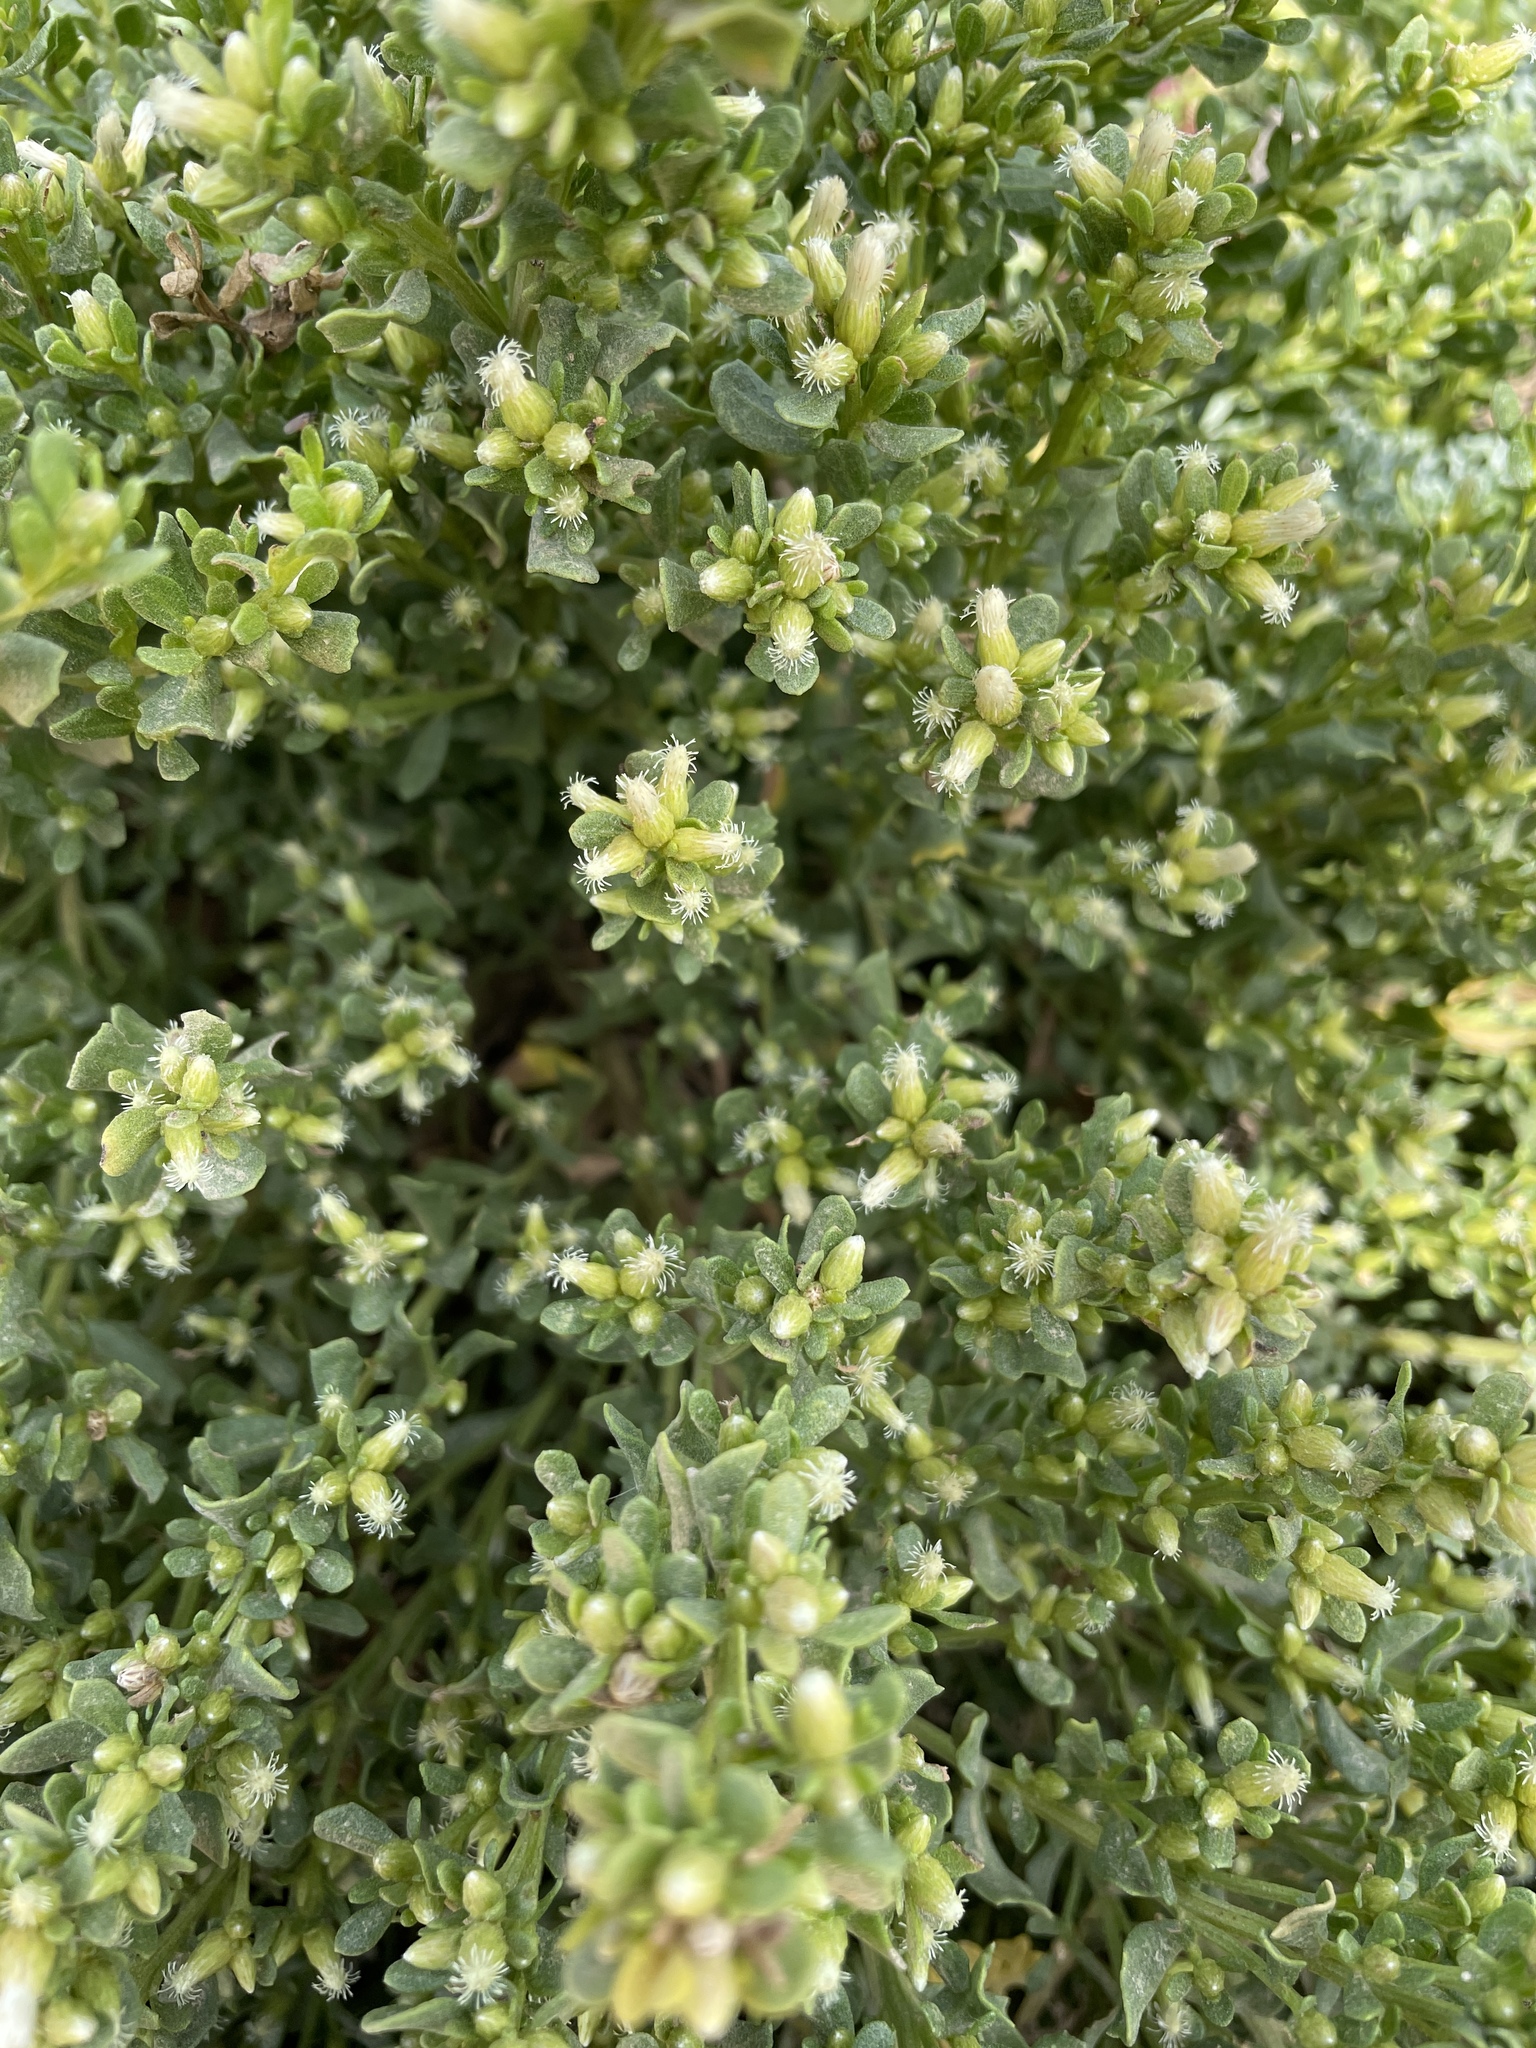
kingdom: Plantae
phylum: Tracheophyta
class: Magnoliopsida
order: Asterales
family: Asteraceae
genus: Baccharis
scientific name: Baccharis pilularis
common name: Coyotebrush
